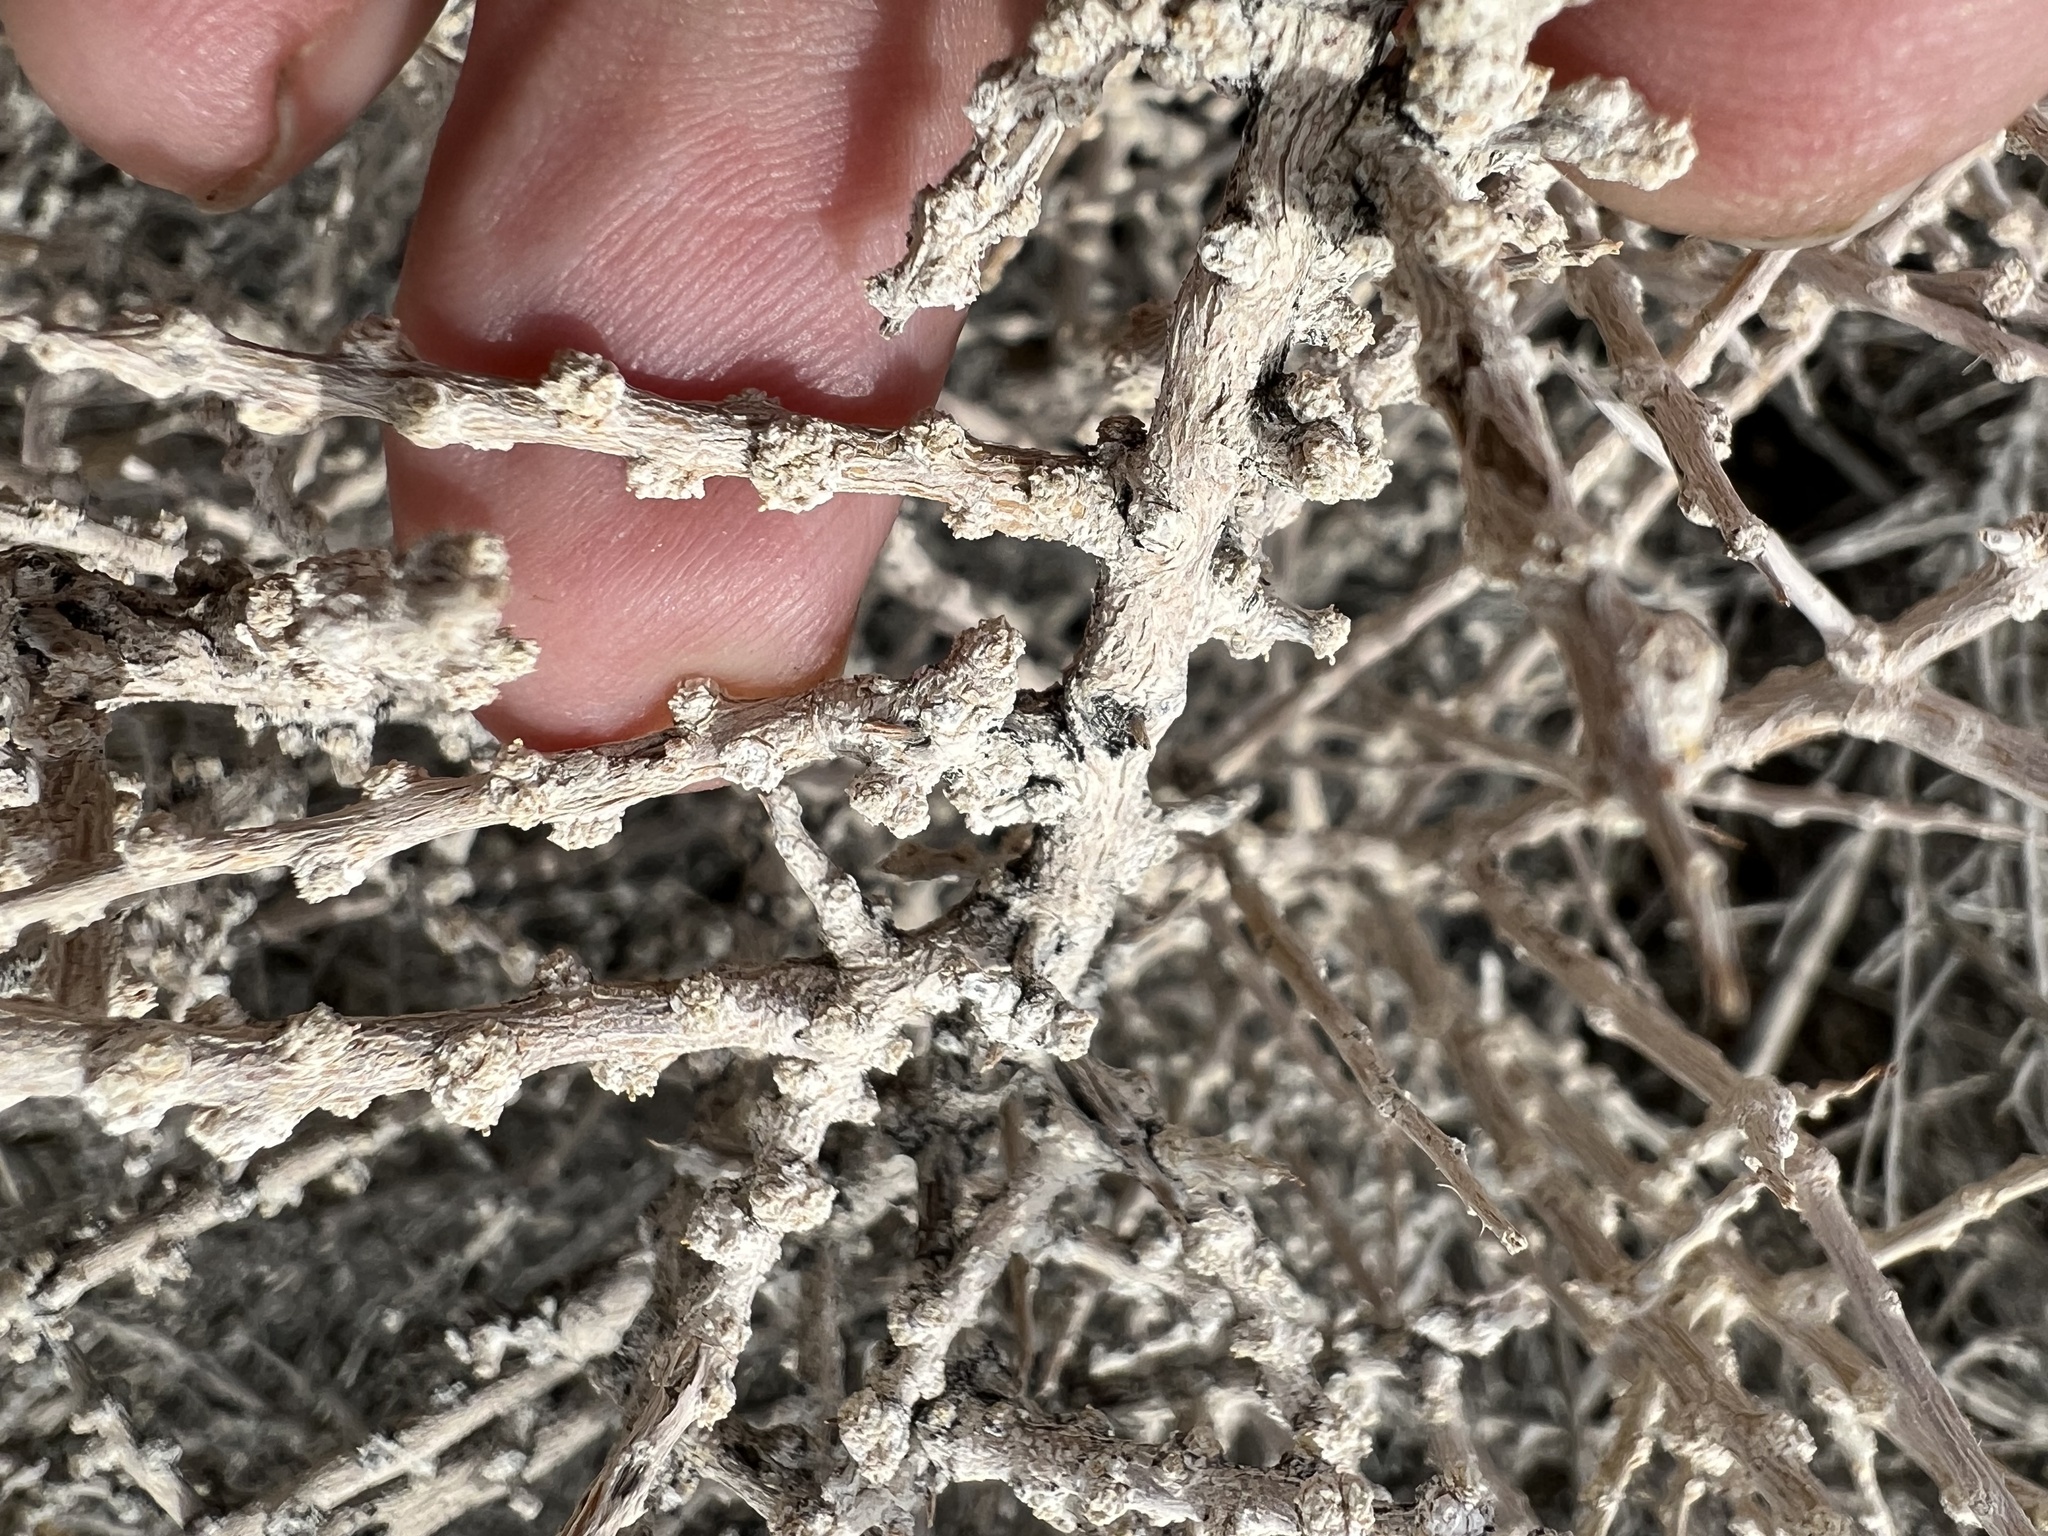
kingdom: Plantae
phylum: Tracheophyta
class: Magnoliopsida
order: Caryophyllales
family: Amaranthaceae
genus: Grayia
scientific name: Grayia spinosa
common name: Spiny hopsage
